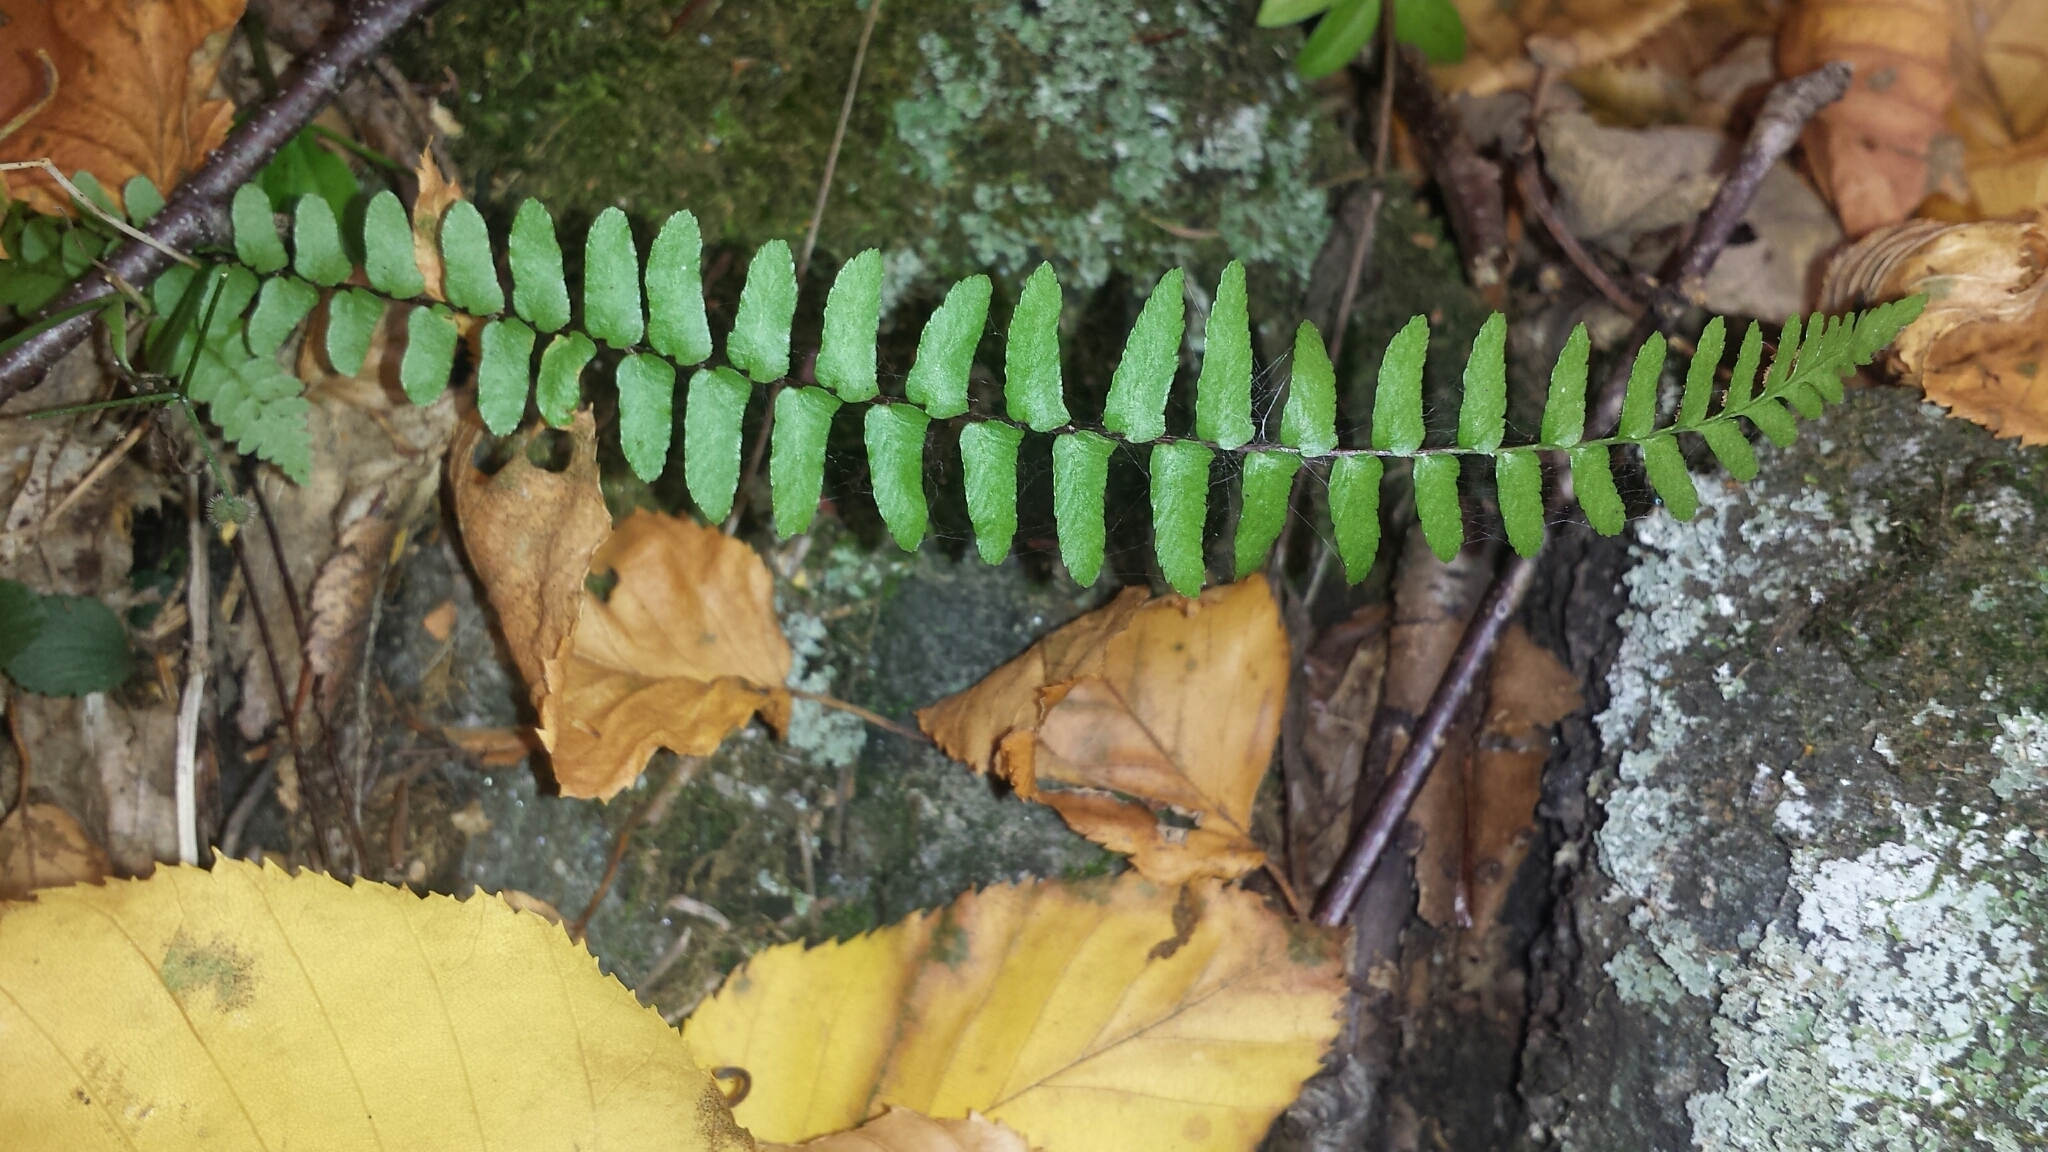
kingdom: Plantae
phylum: Tracheophyta
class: Polypodiopsida
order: Polypodiales
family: Aspleniaceae
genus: Asplenium
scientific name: Asplenium platyneuron
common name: Ebony spleenwort
